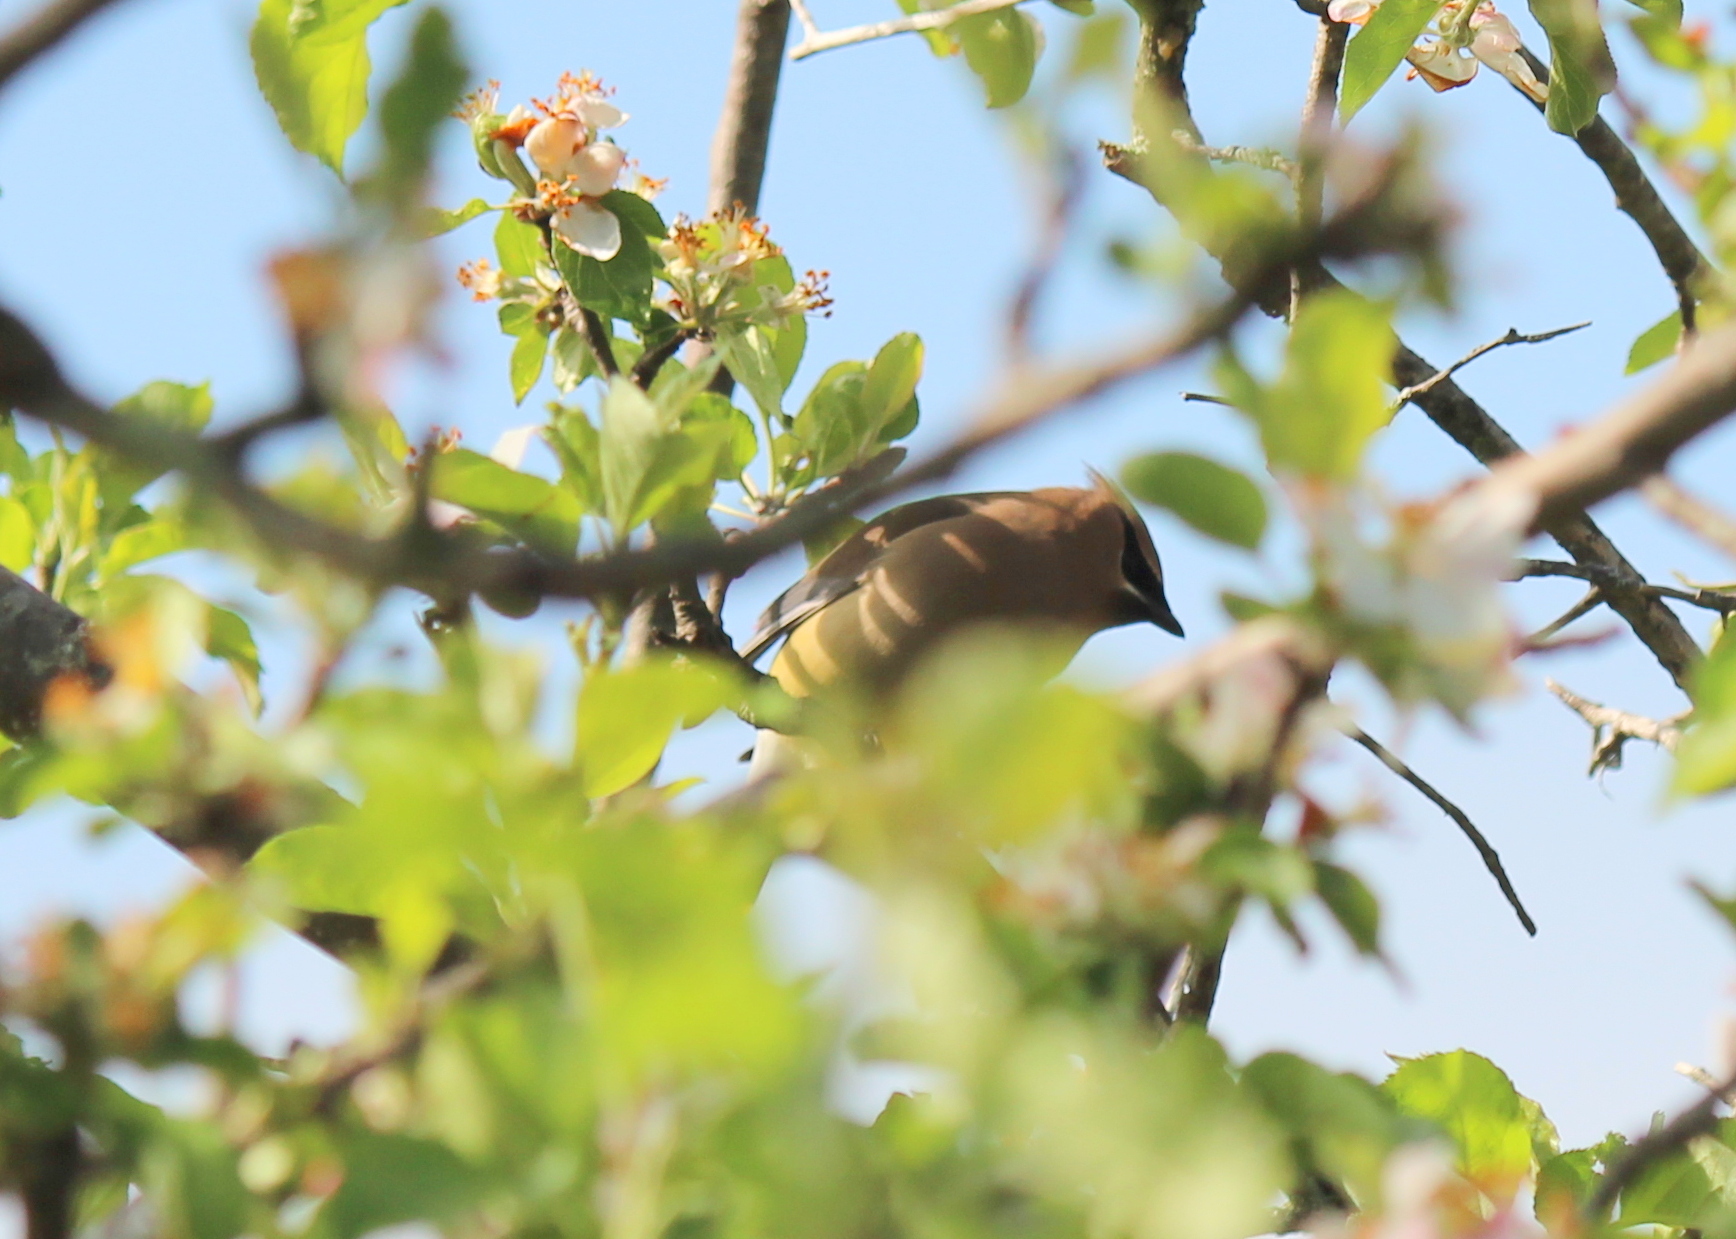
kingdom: Animalia
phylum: Chordata
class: Aves
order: Passeriformes
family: Bombycillidae
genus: Bombycilla
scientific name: Bombycilla cedrorum
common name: Cedar waxwing
